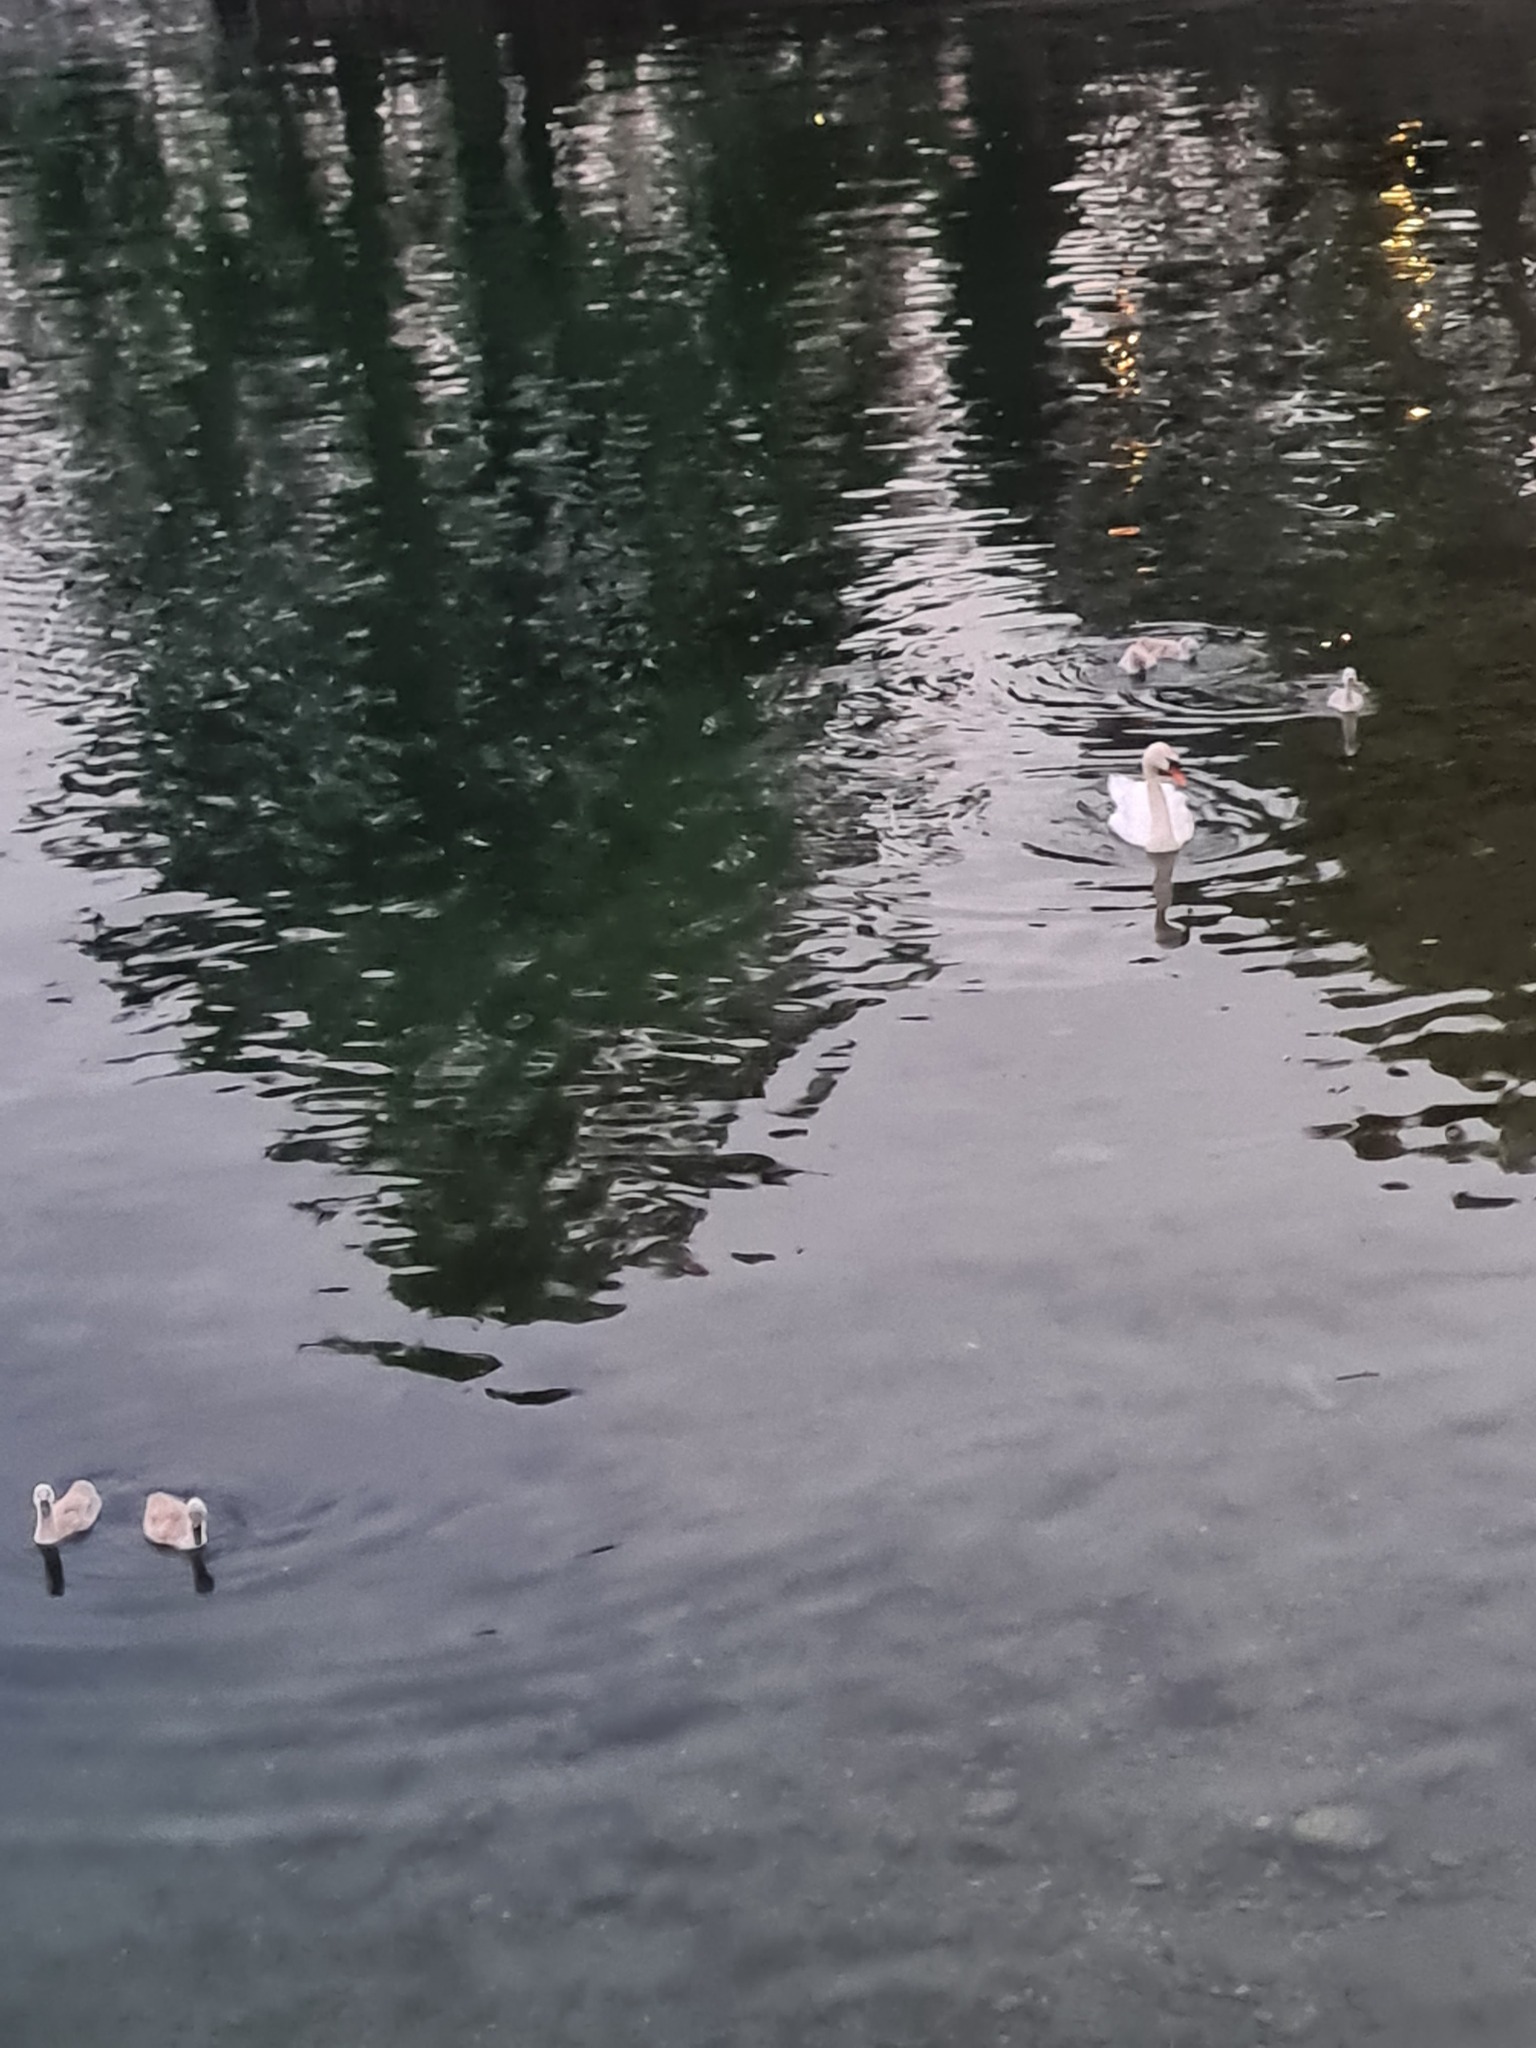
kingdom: Animalia
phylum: Chordata
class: Aves
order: Anseriformes
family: Anatidae
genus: Cygnus
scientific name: Cygnus olor
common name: Mute swan
